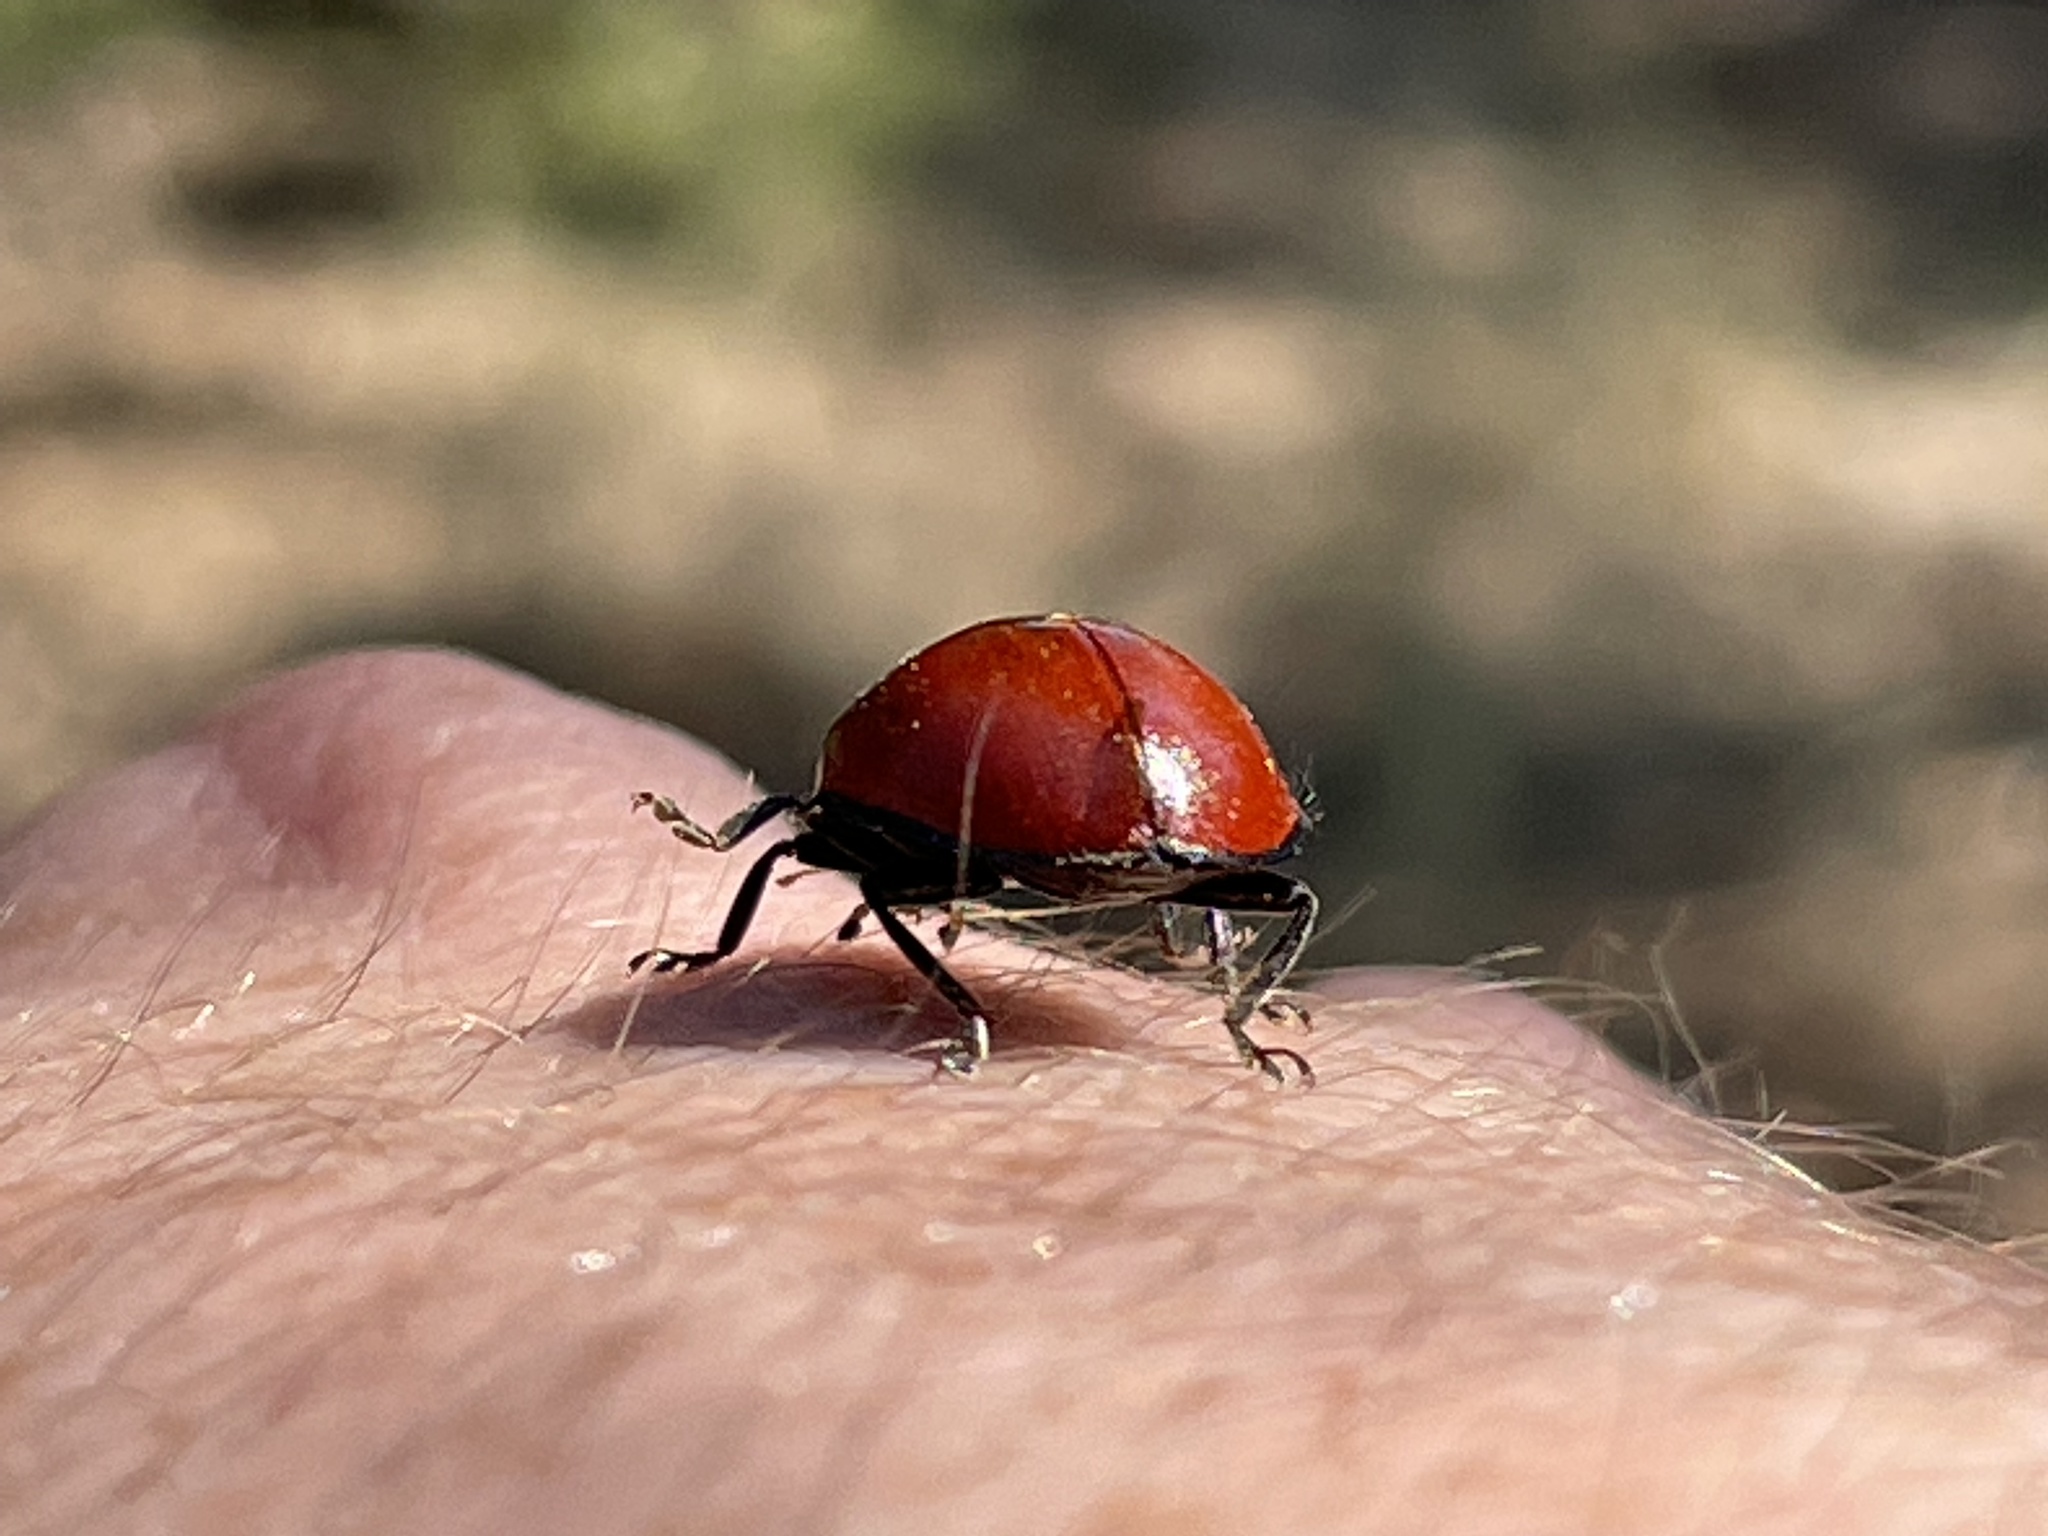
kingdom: Animalia
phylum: Arthropoda
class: Insecta
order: Coleoptera
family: Coccinellidae
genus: Anatis
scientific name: Anatis lecontei
